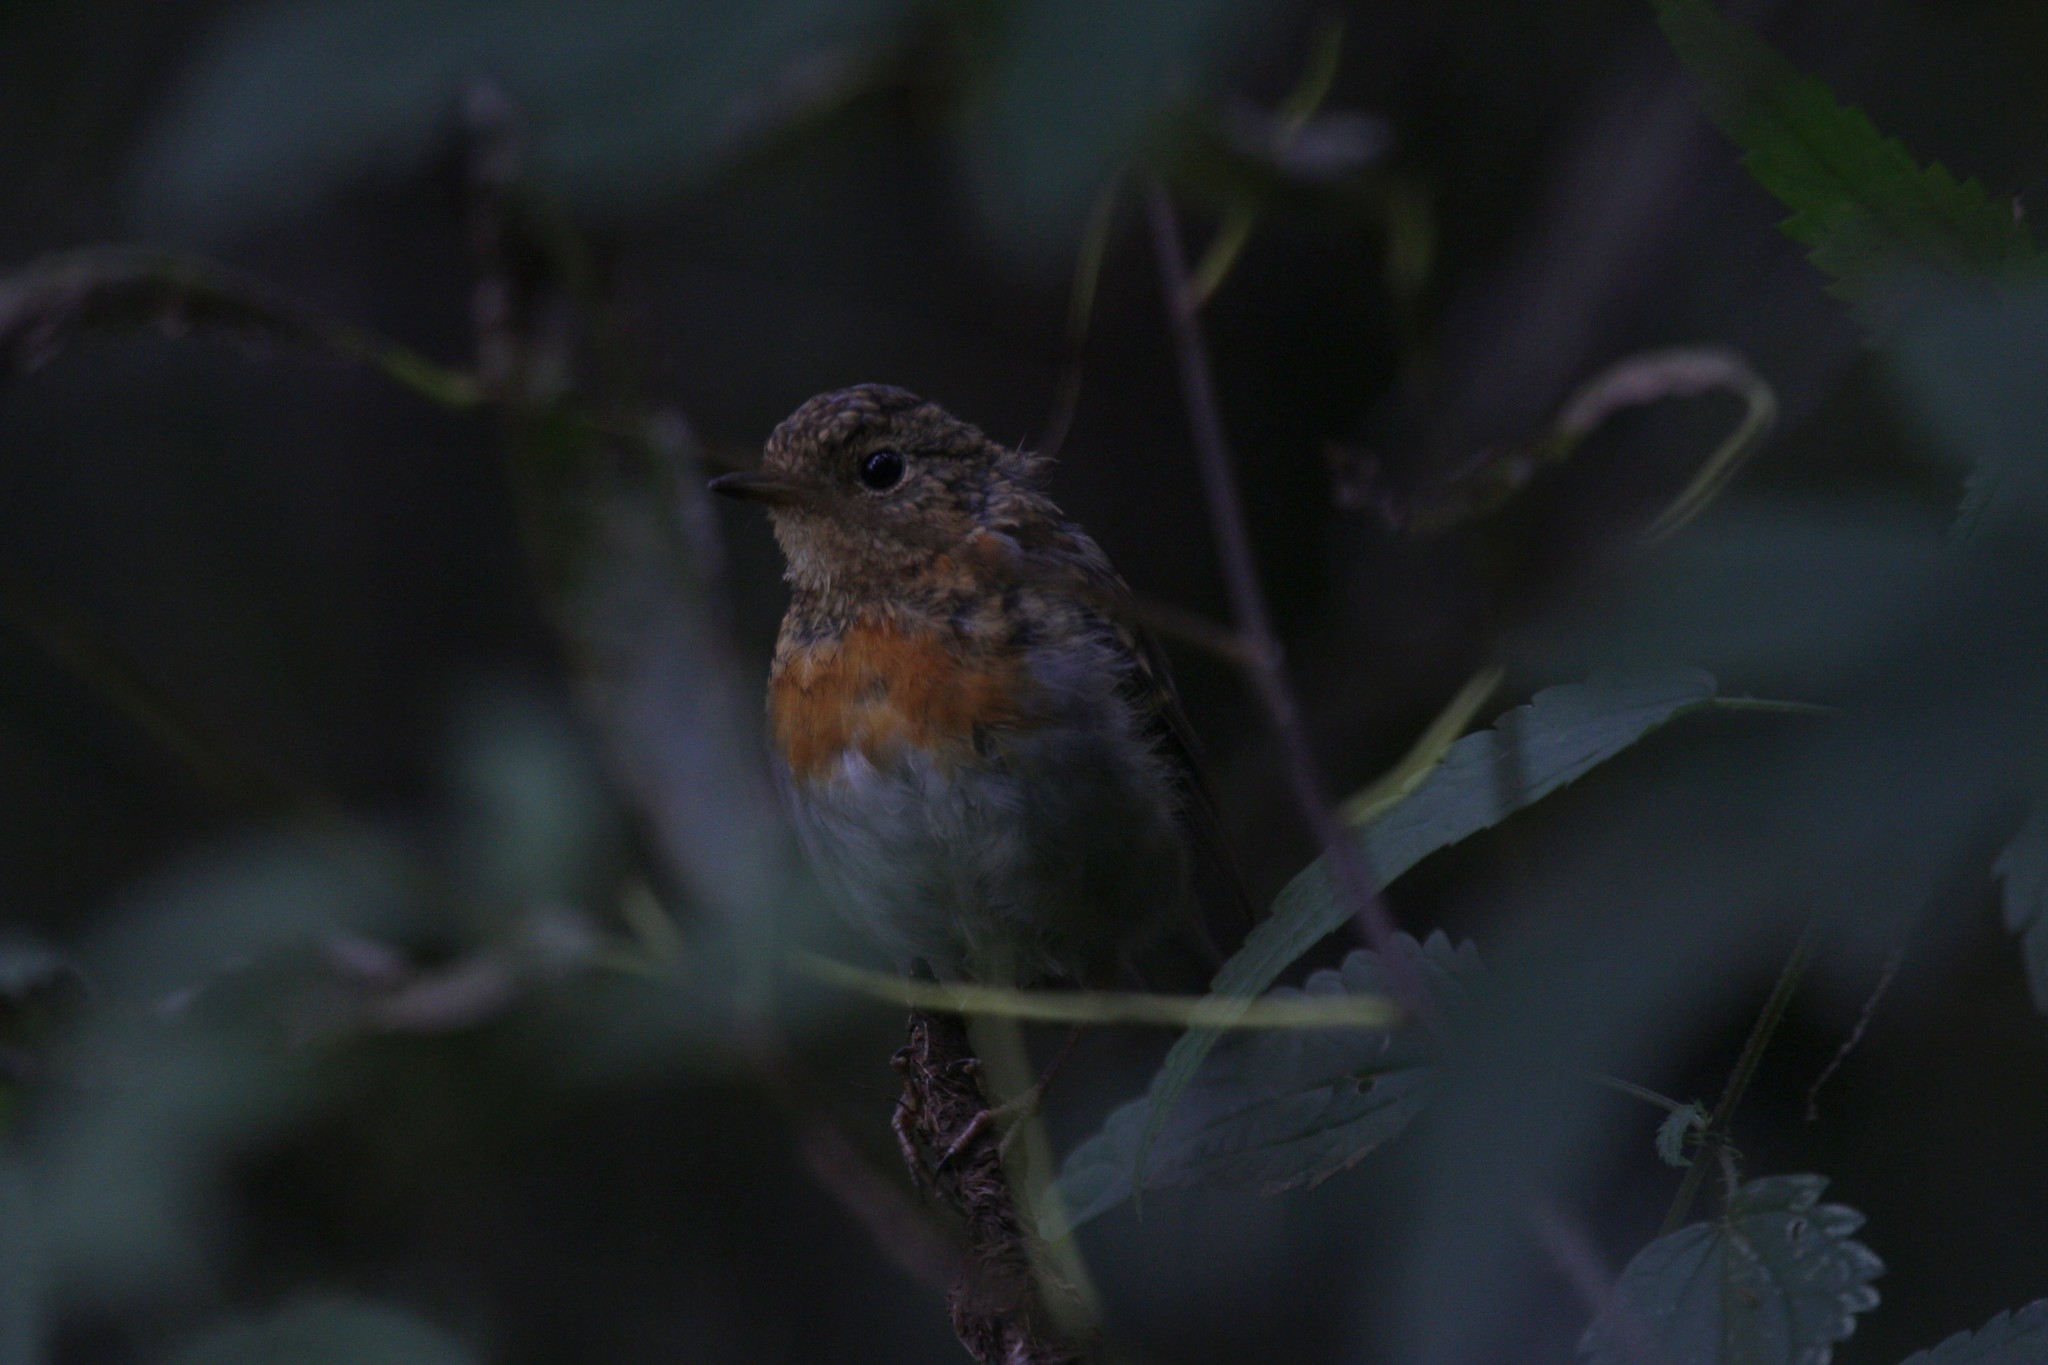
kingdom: Animalia
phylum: Chordata
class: Aves
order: Passeriformes
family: Muscicapidae
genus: Erithacus
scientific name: Erithacus rubecula
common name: European robin
